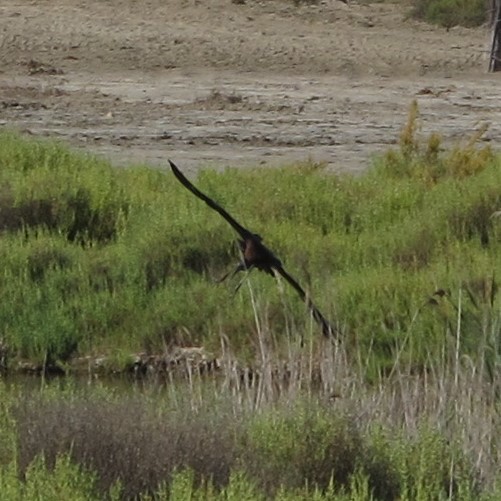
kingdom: Animalia
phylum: Chordata
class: Aves
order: Pelecaniformes
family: Threskiornithidae
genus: Plegadis
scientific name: Plegadis falcinellus
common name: Glossy ibis
